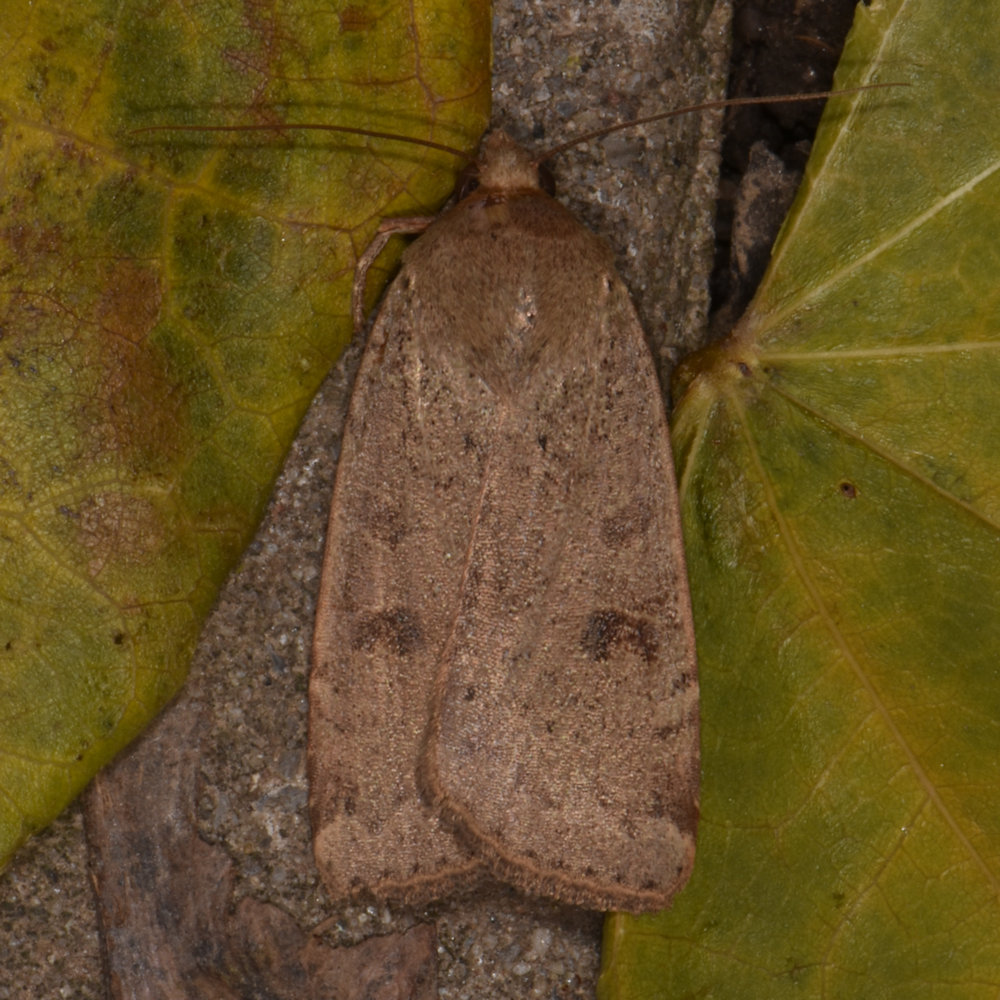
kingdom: Animalia
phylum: Arthropoda
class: Insecta
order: Lepidoptera
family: Noctuidae
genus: Noctua
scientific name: Noctua comes
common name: Lesser yellow underwing
